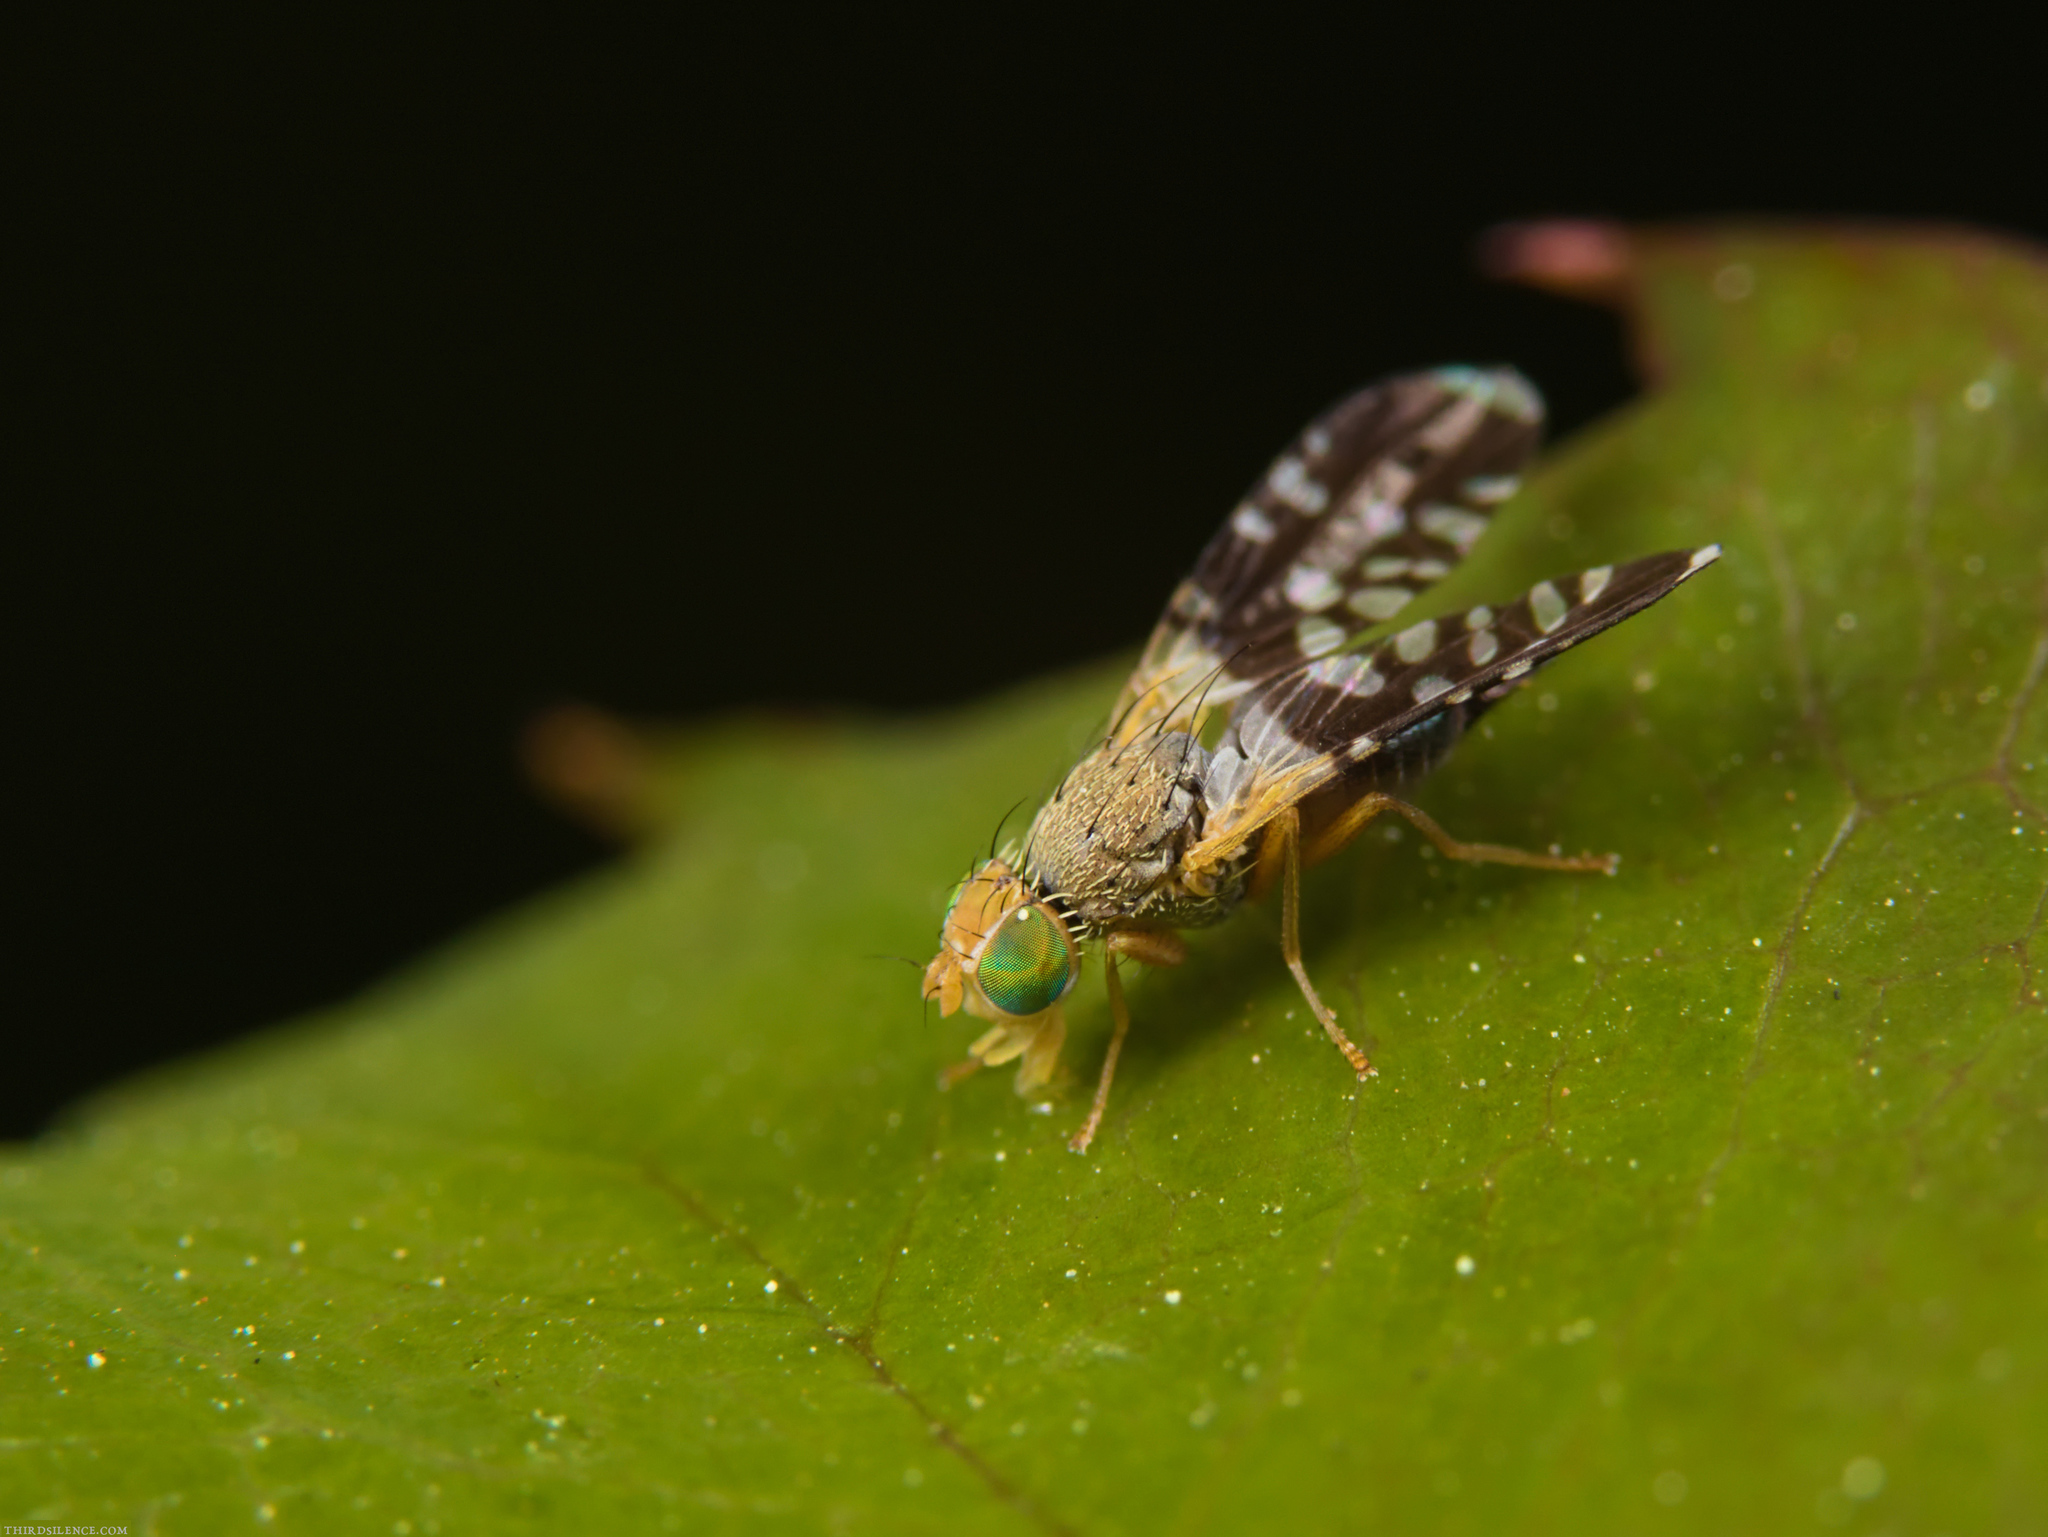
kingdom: Animalia
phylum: Arthropoda
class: Insecta
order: Diptera
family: Tephritidae
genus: Spathulina
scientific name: Spathulina acroleuca
